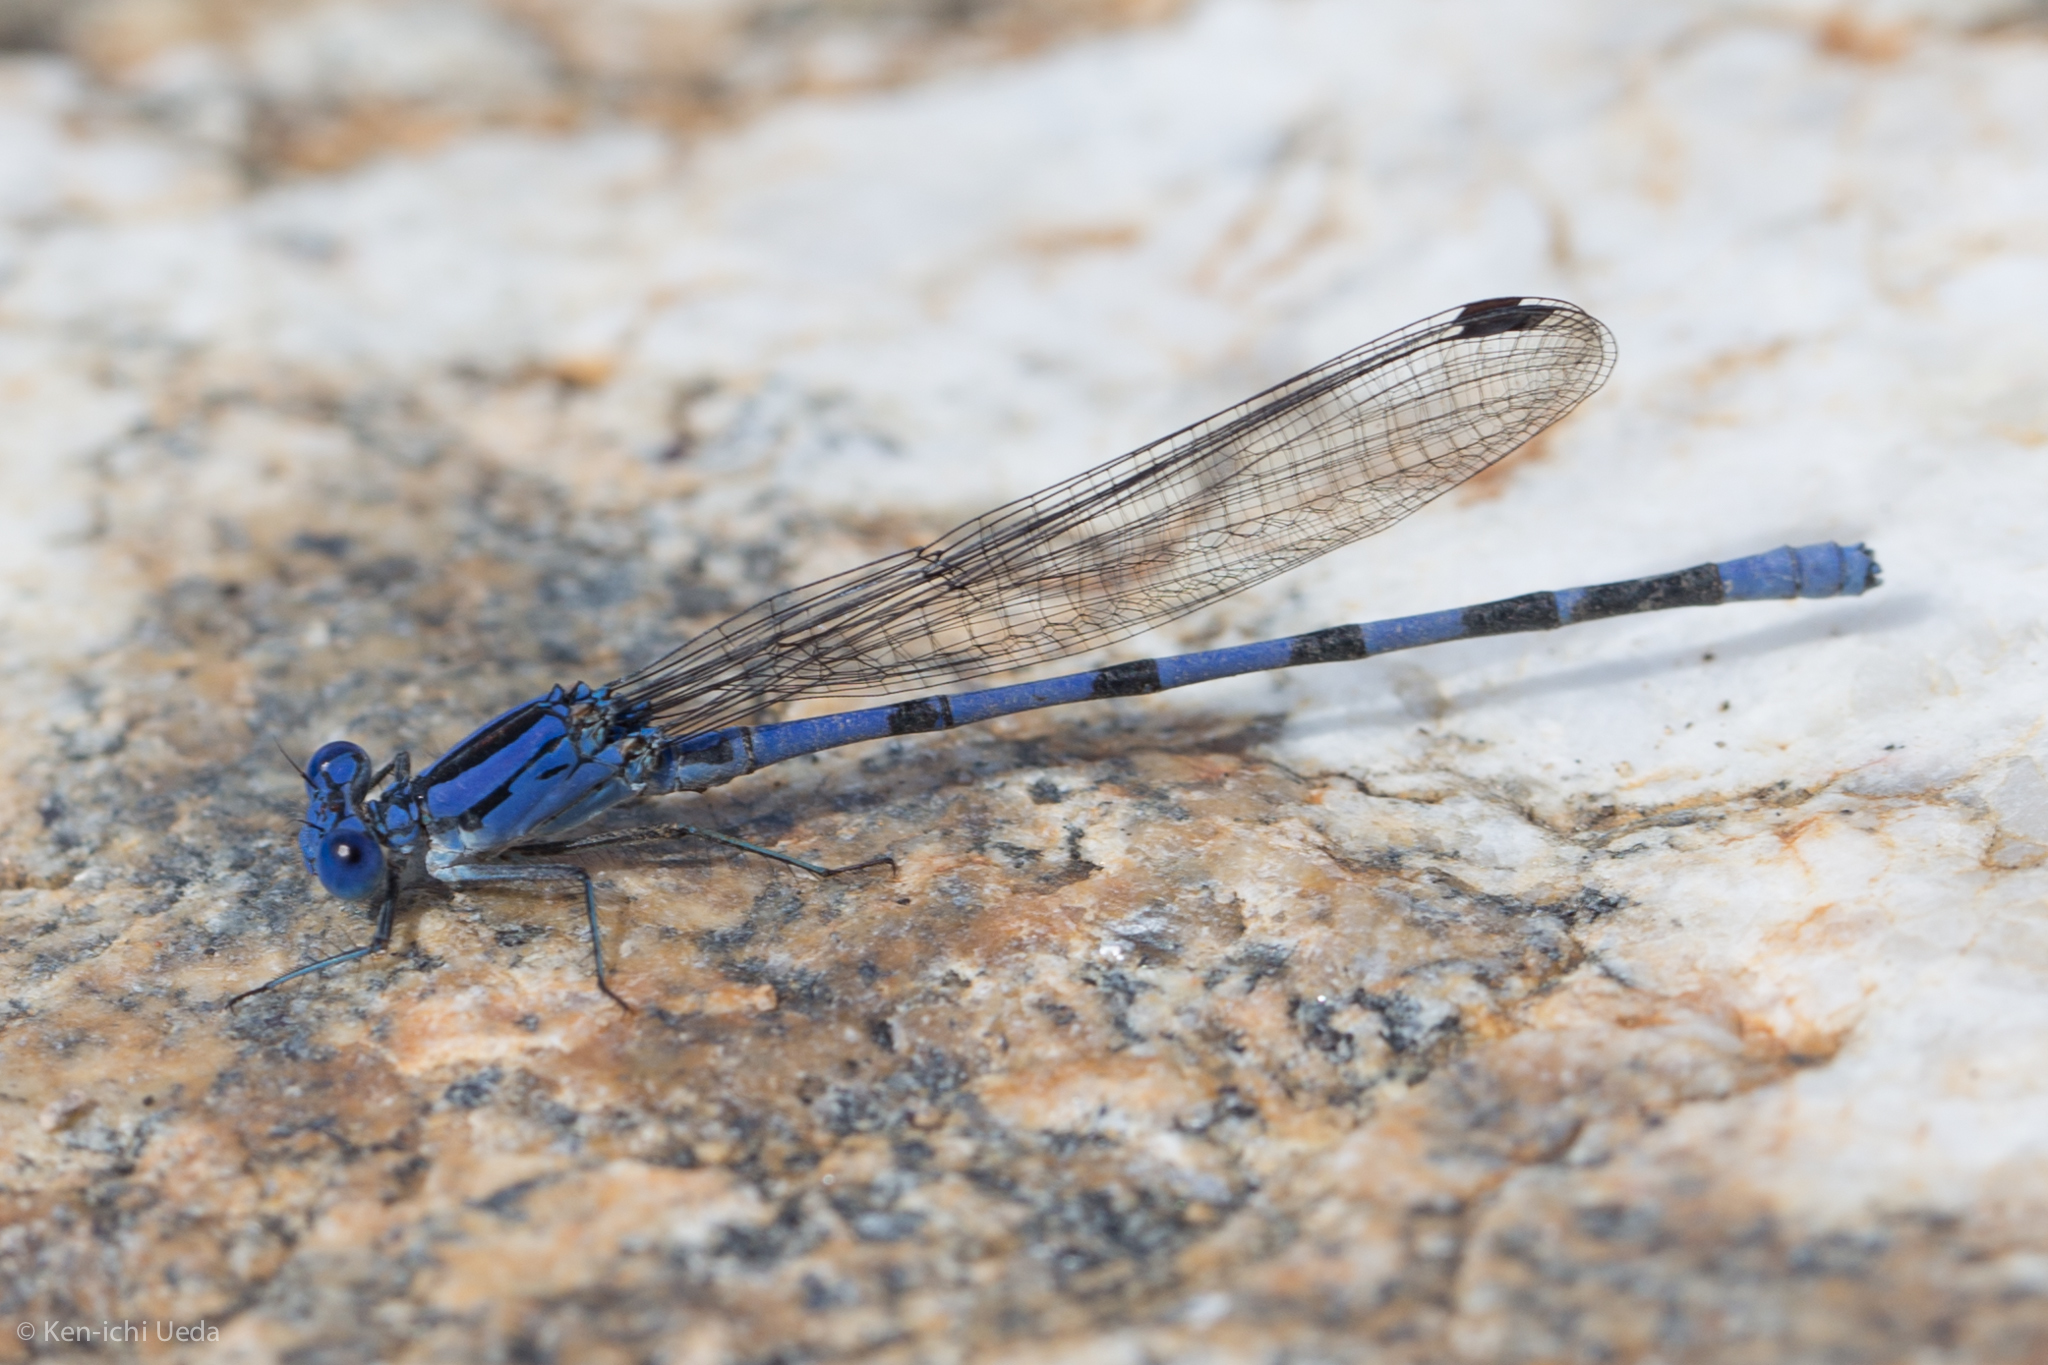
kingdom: Animalia
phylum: Arthropoda
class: Insecta
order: Odonata
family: Coenagrionidae
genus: Argia
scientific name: Argia sabino
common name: Sabino dancer
